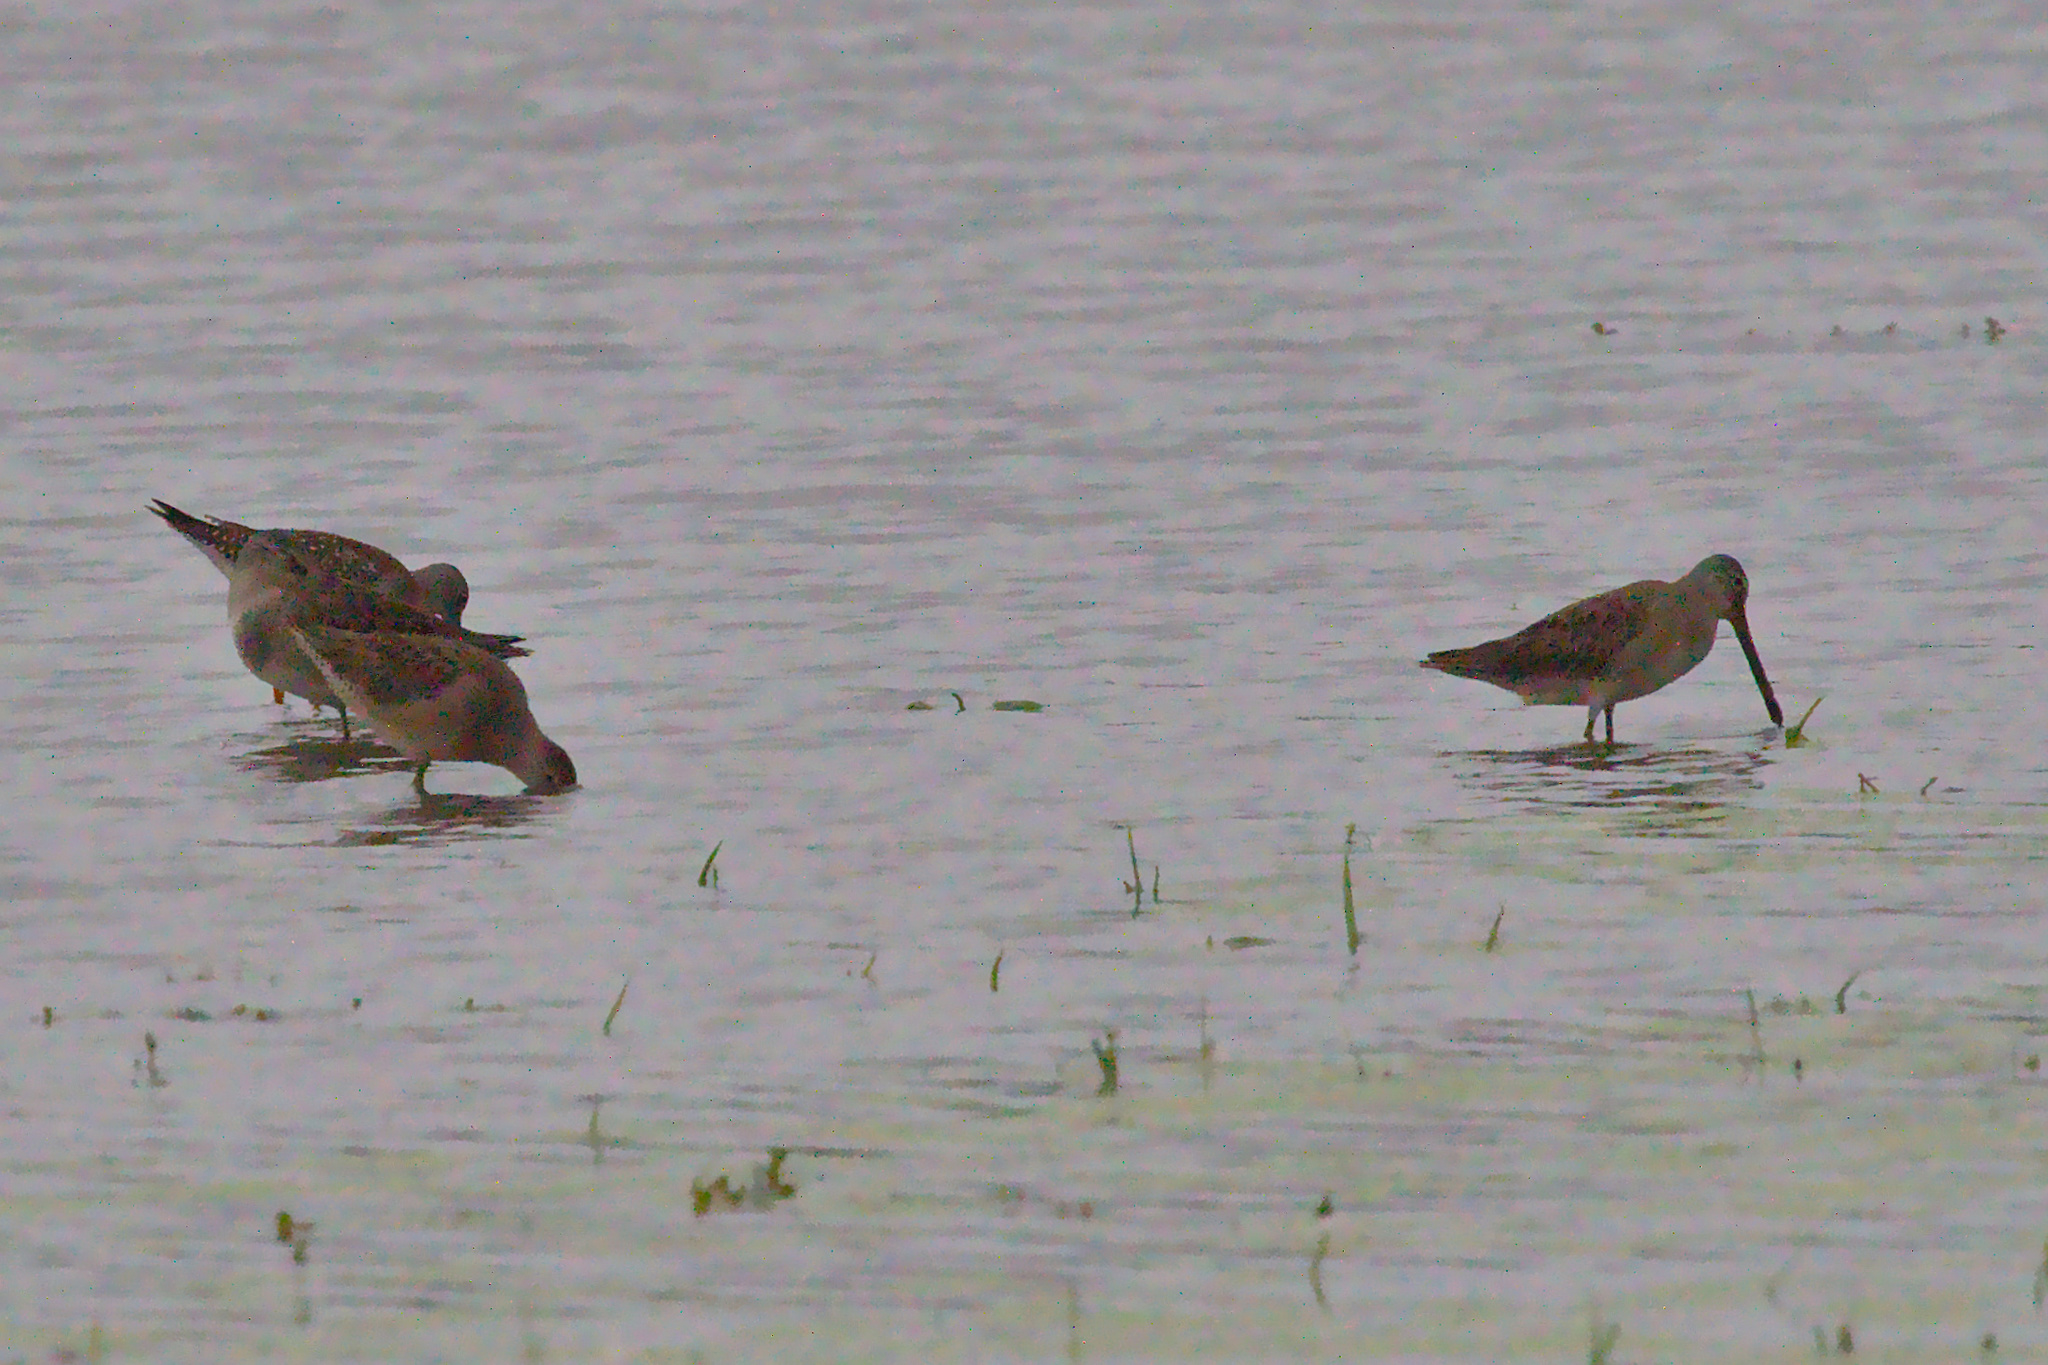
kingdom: Animalia
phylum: Chordata
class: Aves
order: Charadriiformes
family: Scolopacidae
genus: Limnodromus
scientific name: Limnodromus scolopaceus
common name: Long-billed dowitcher
